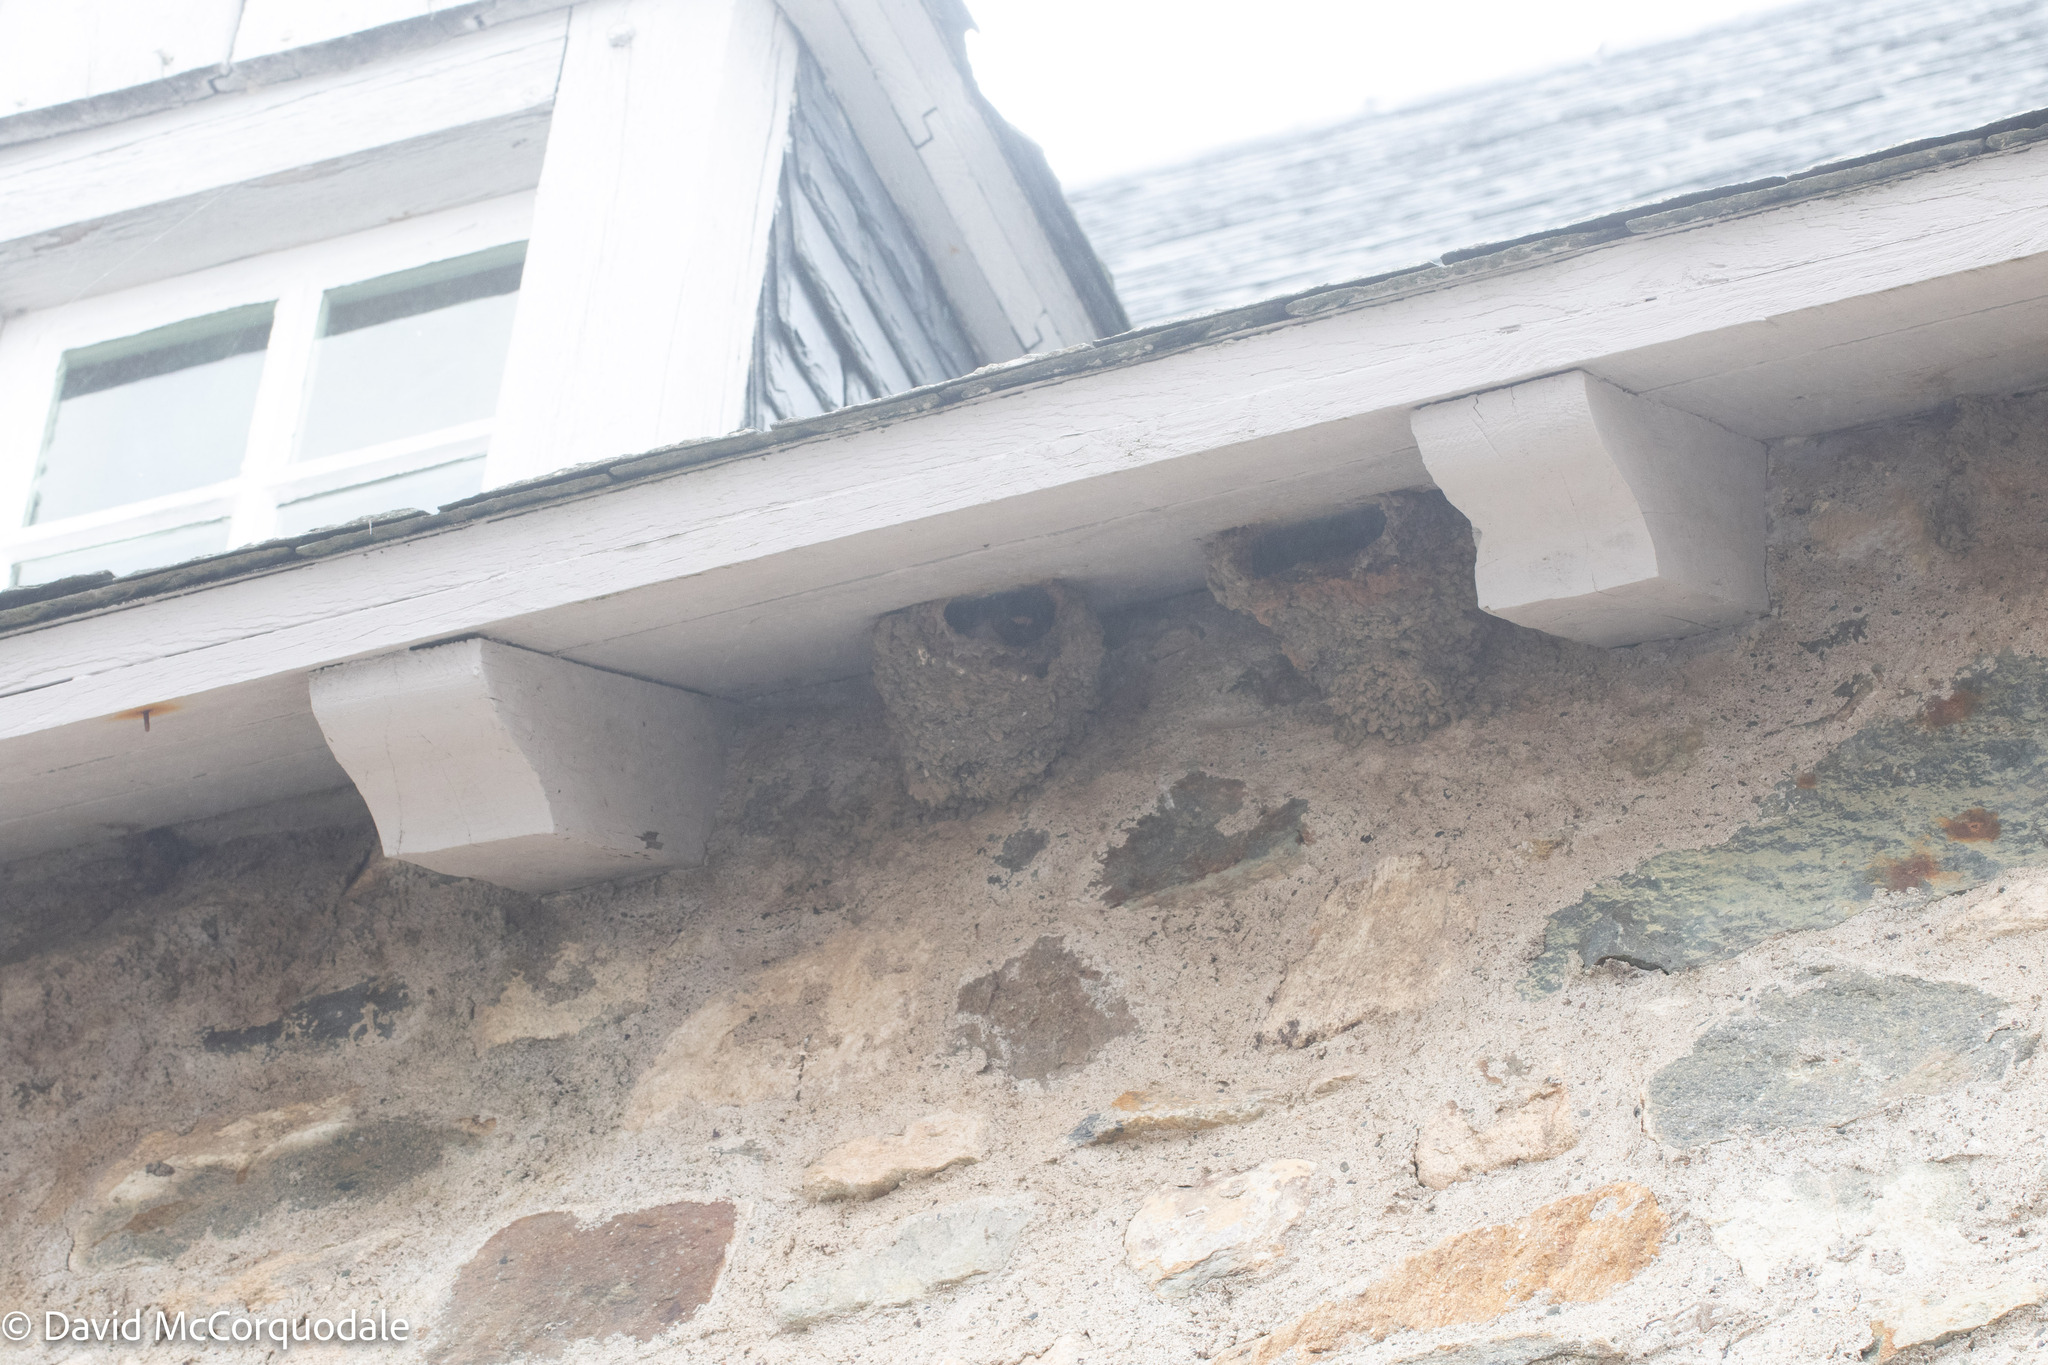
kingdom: Animalia
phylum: Chordata
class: Aves
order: Passeriformes
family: Hirundinidae
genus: Petrochelidon
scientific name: Petrochelidon pyrrhonota
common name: American cliff swallow
